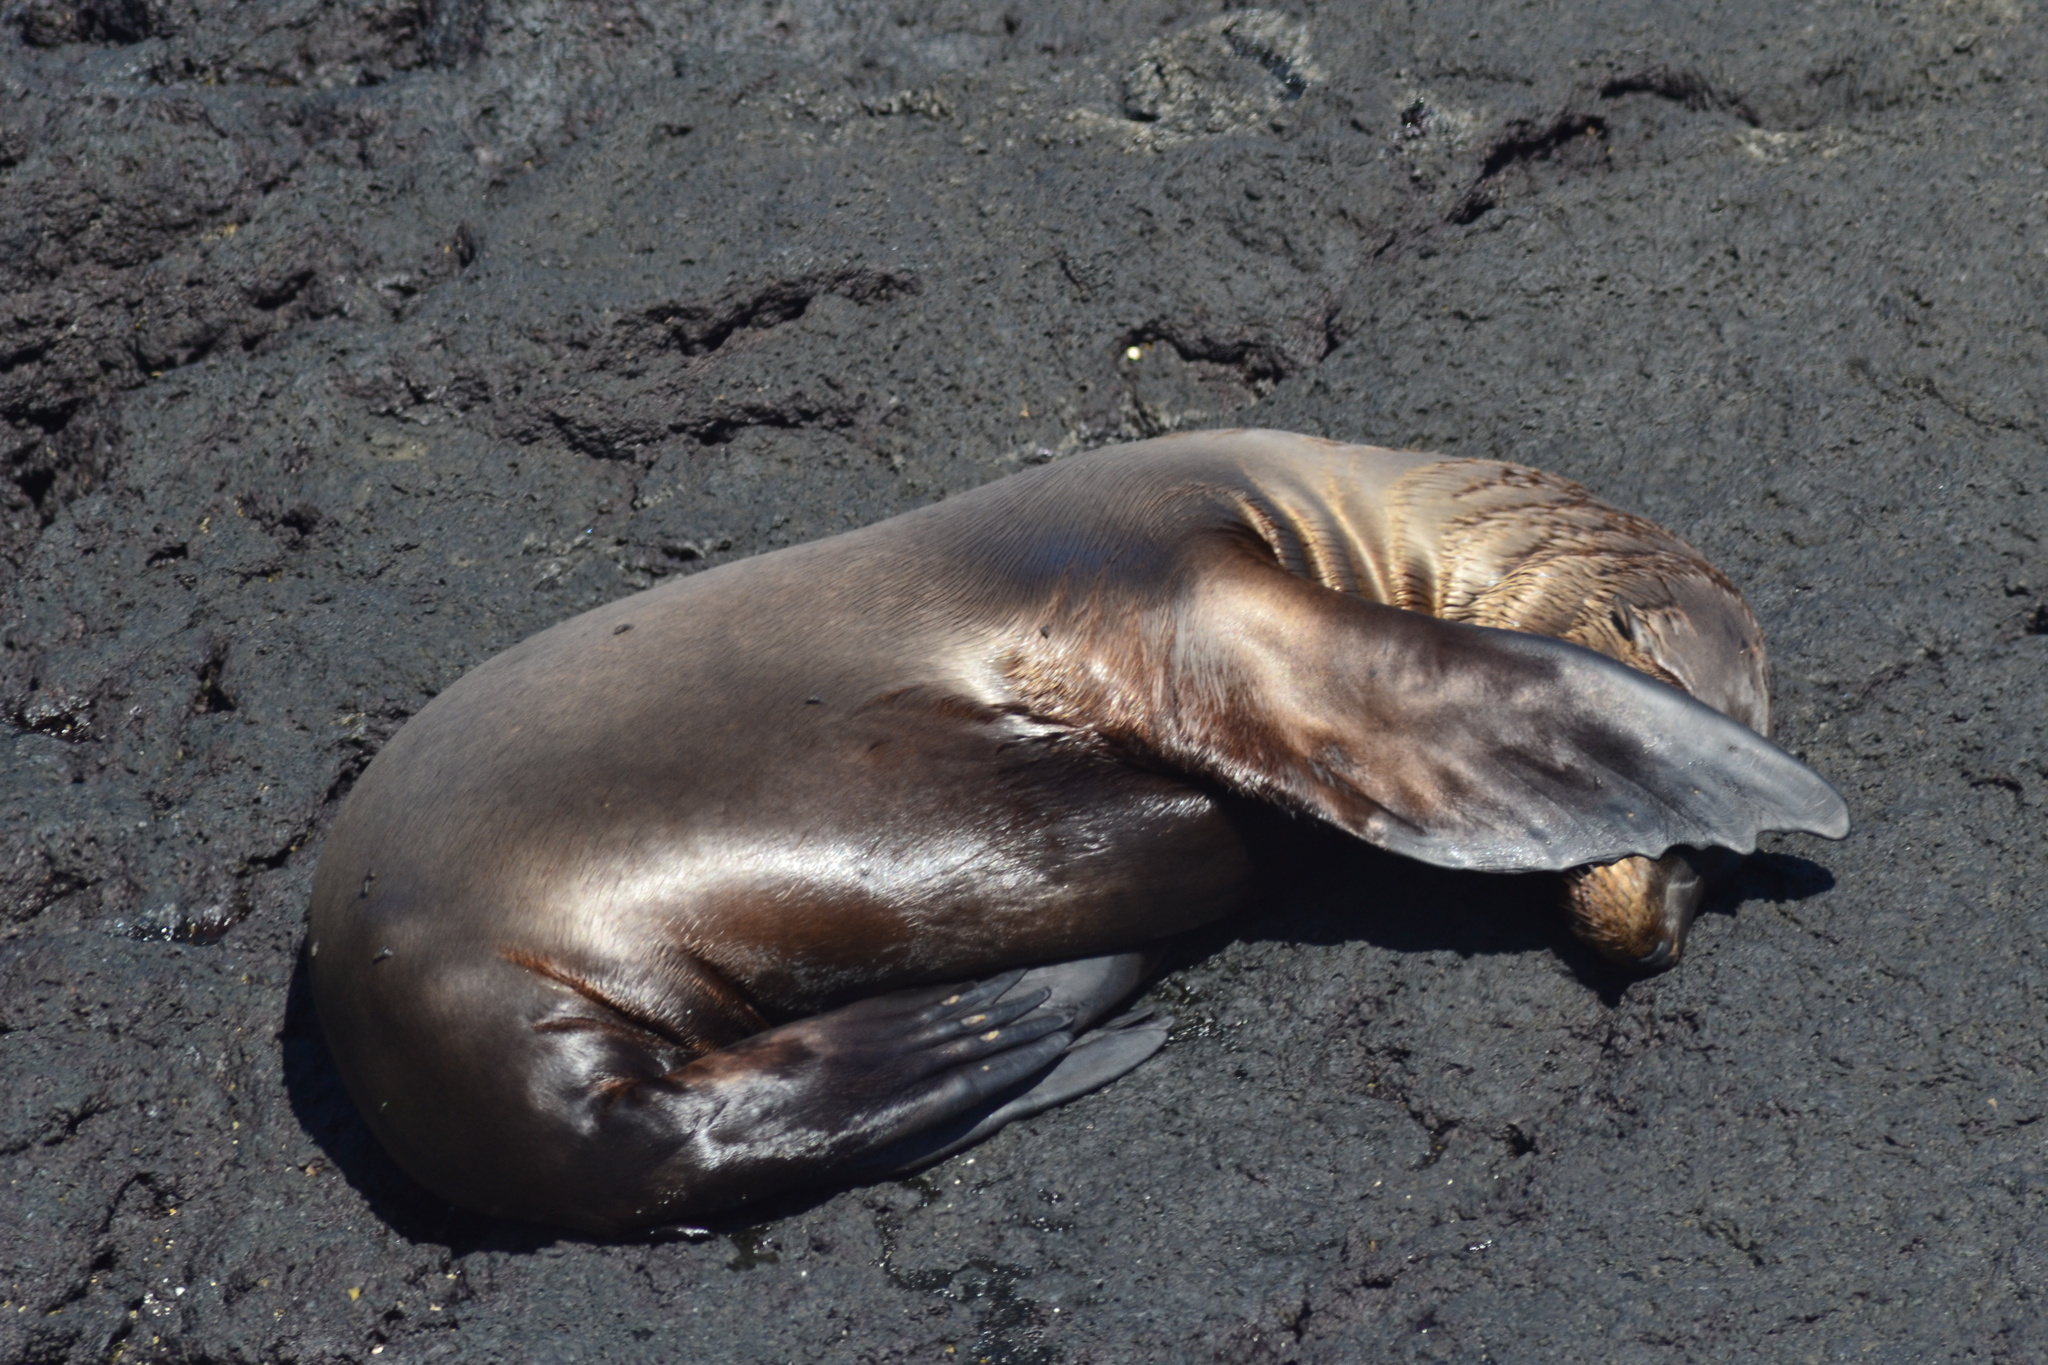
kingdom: Animalia
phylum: Chordata
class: Mammalia
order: Carnivora
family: Otariidae
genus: Zalophus
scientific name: Zalophus wollebaeki
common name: Galapagos sea lion
